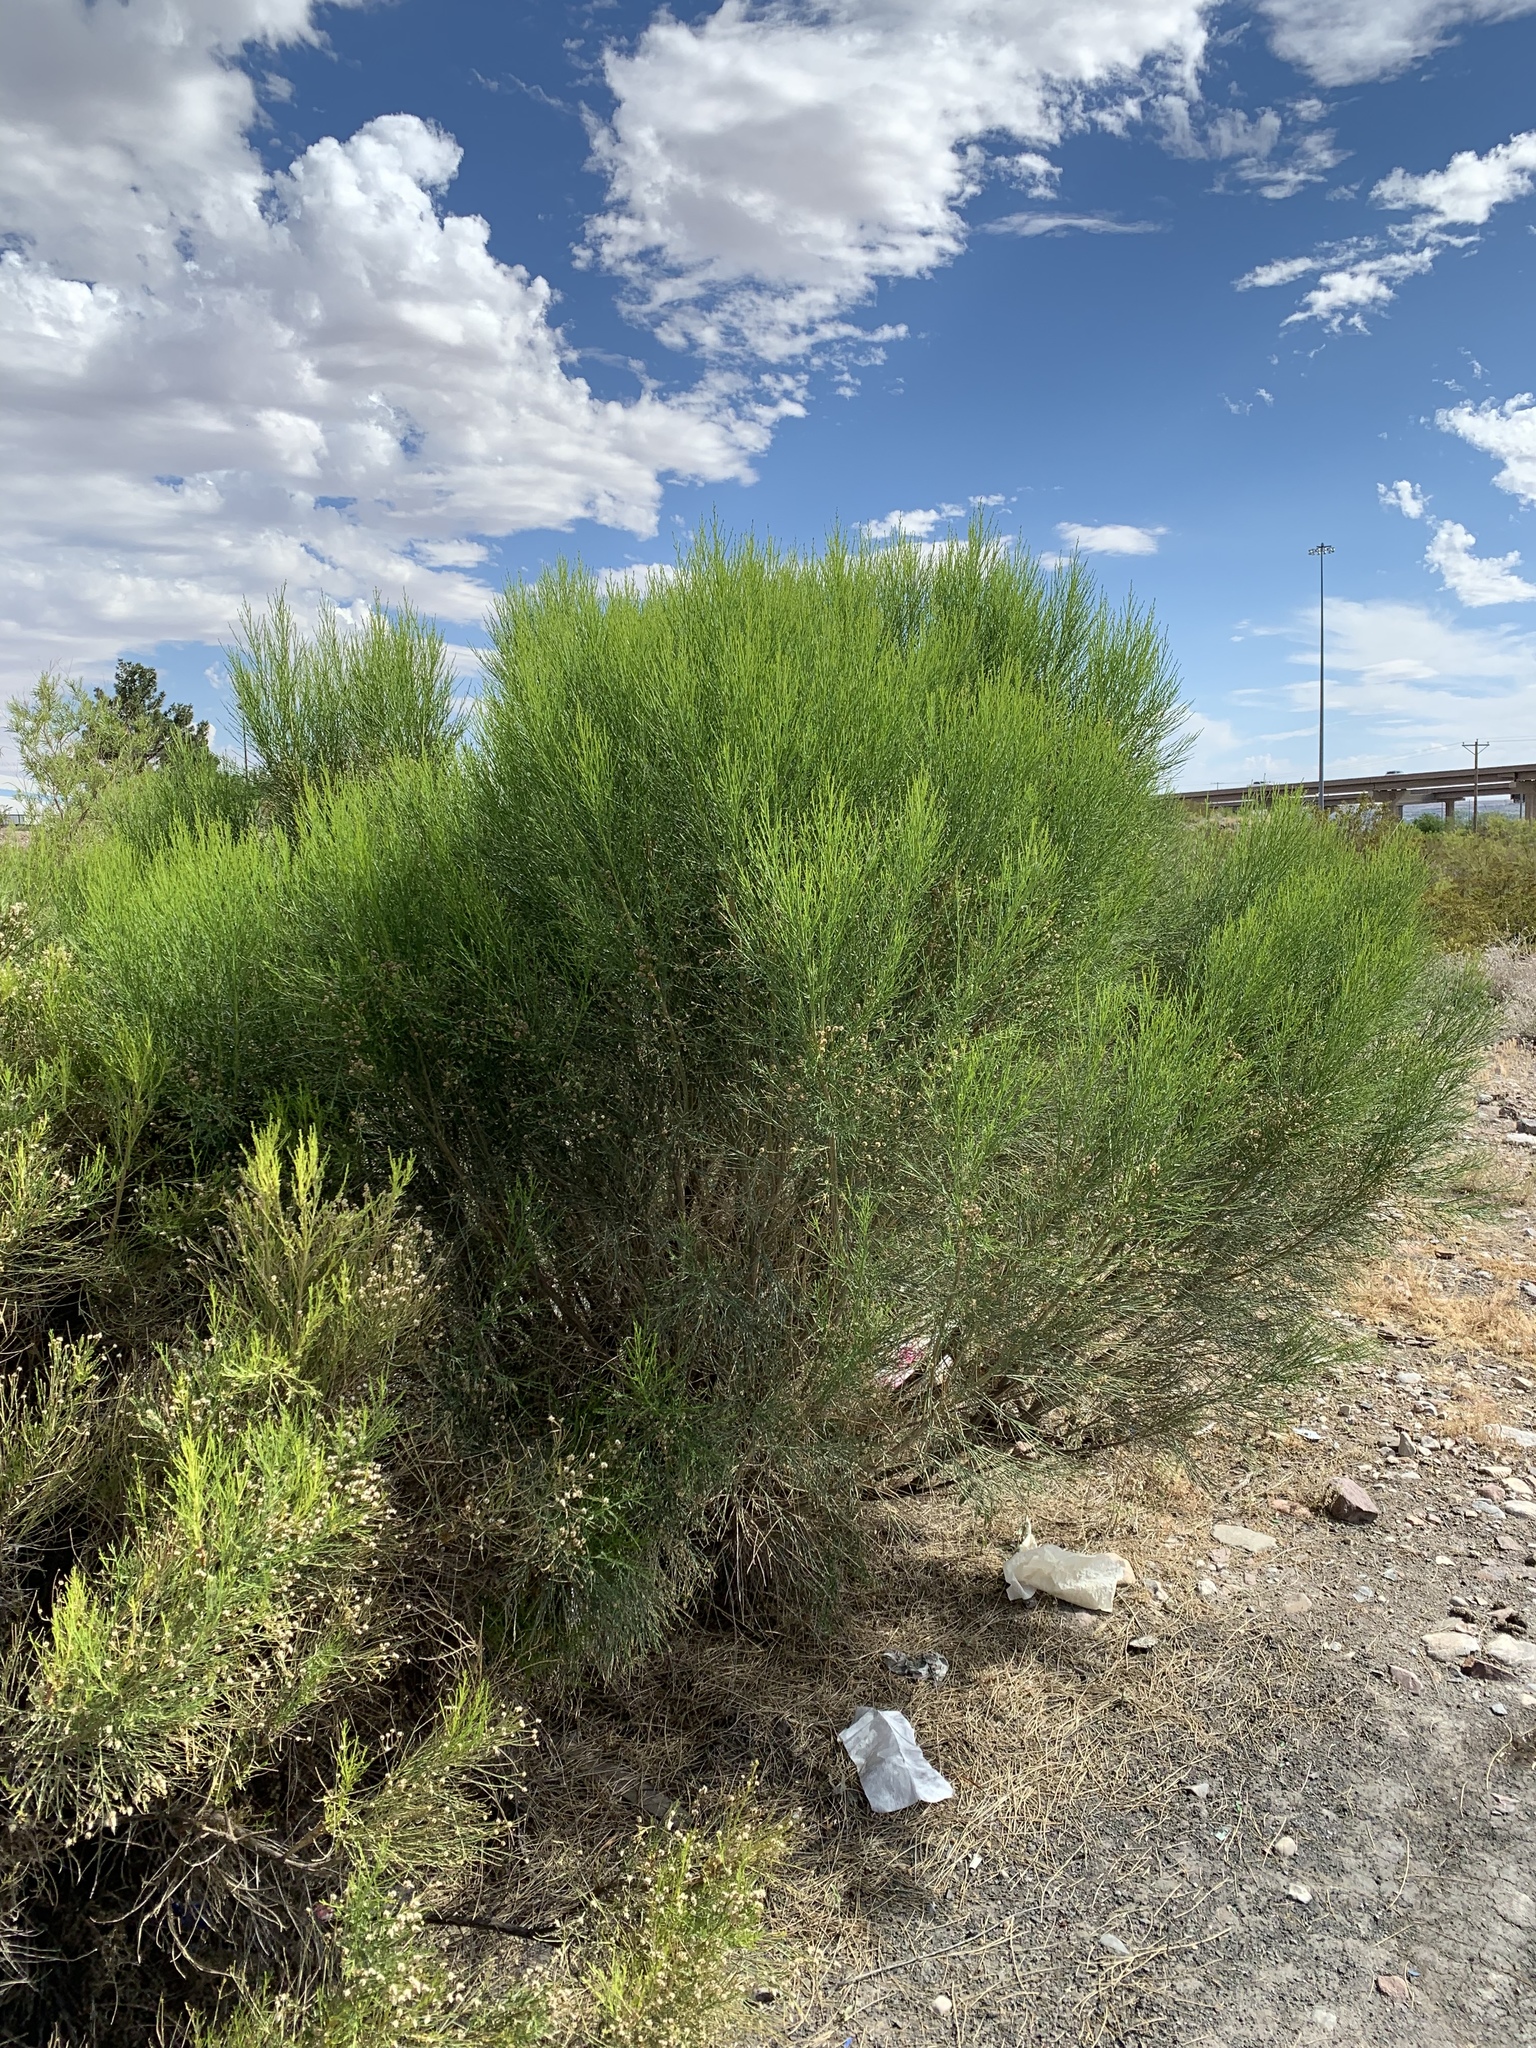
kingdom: Plantae
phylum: Tracheophyta
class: Magnoliopsida
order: Asterales
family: Asteraceae
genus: Baccharis
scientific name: Baccharis sarothroides
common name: Desert-broom
